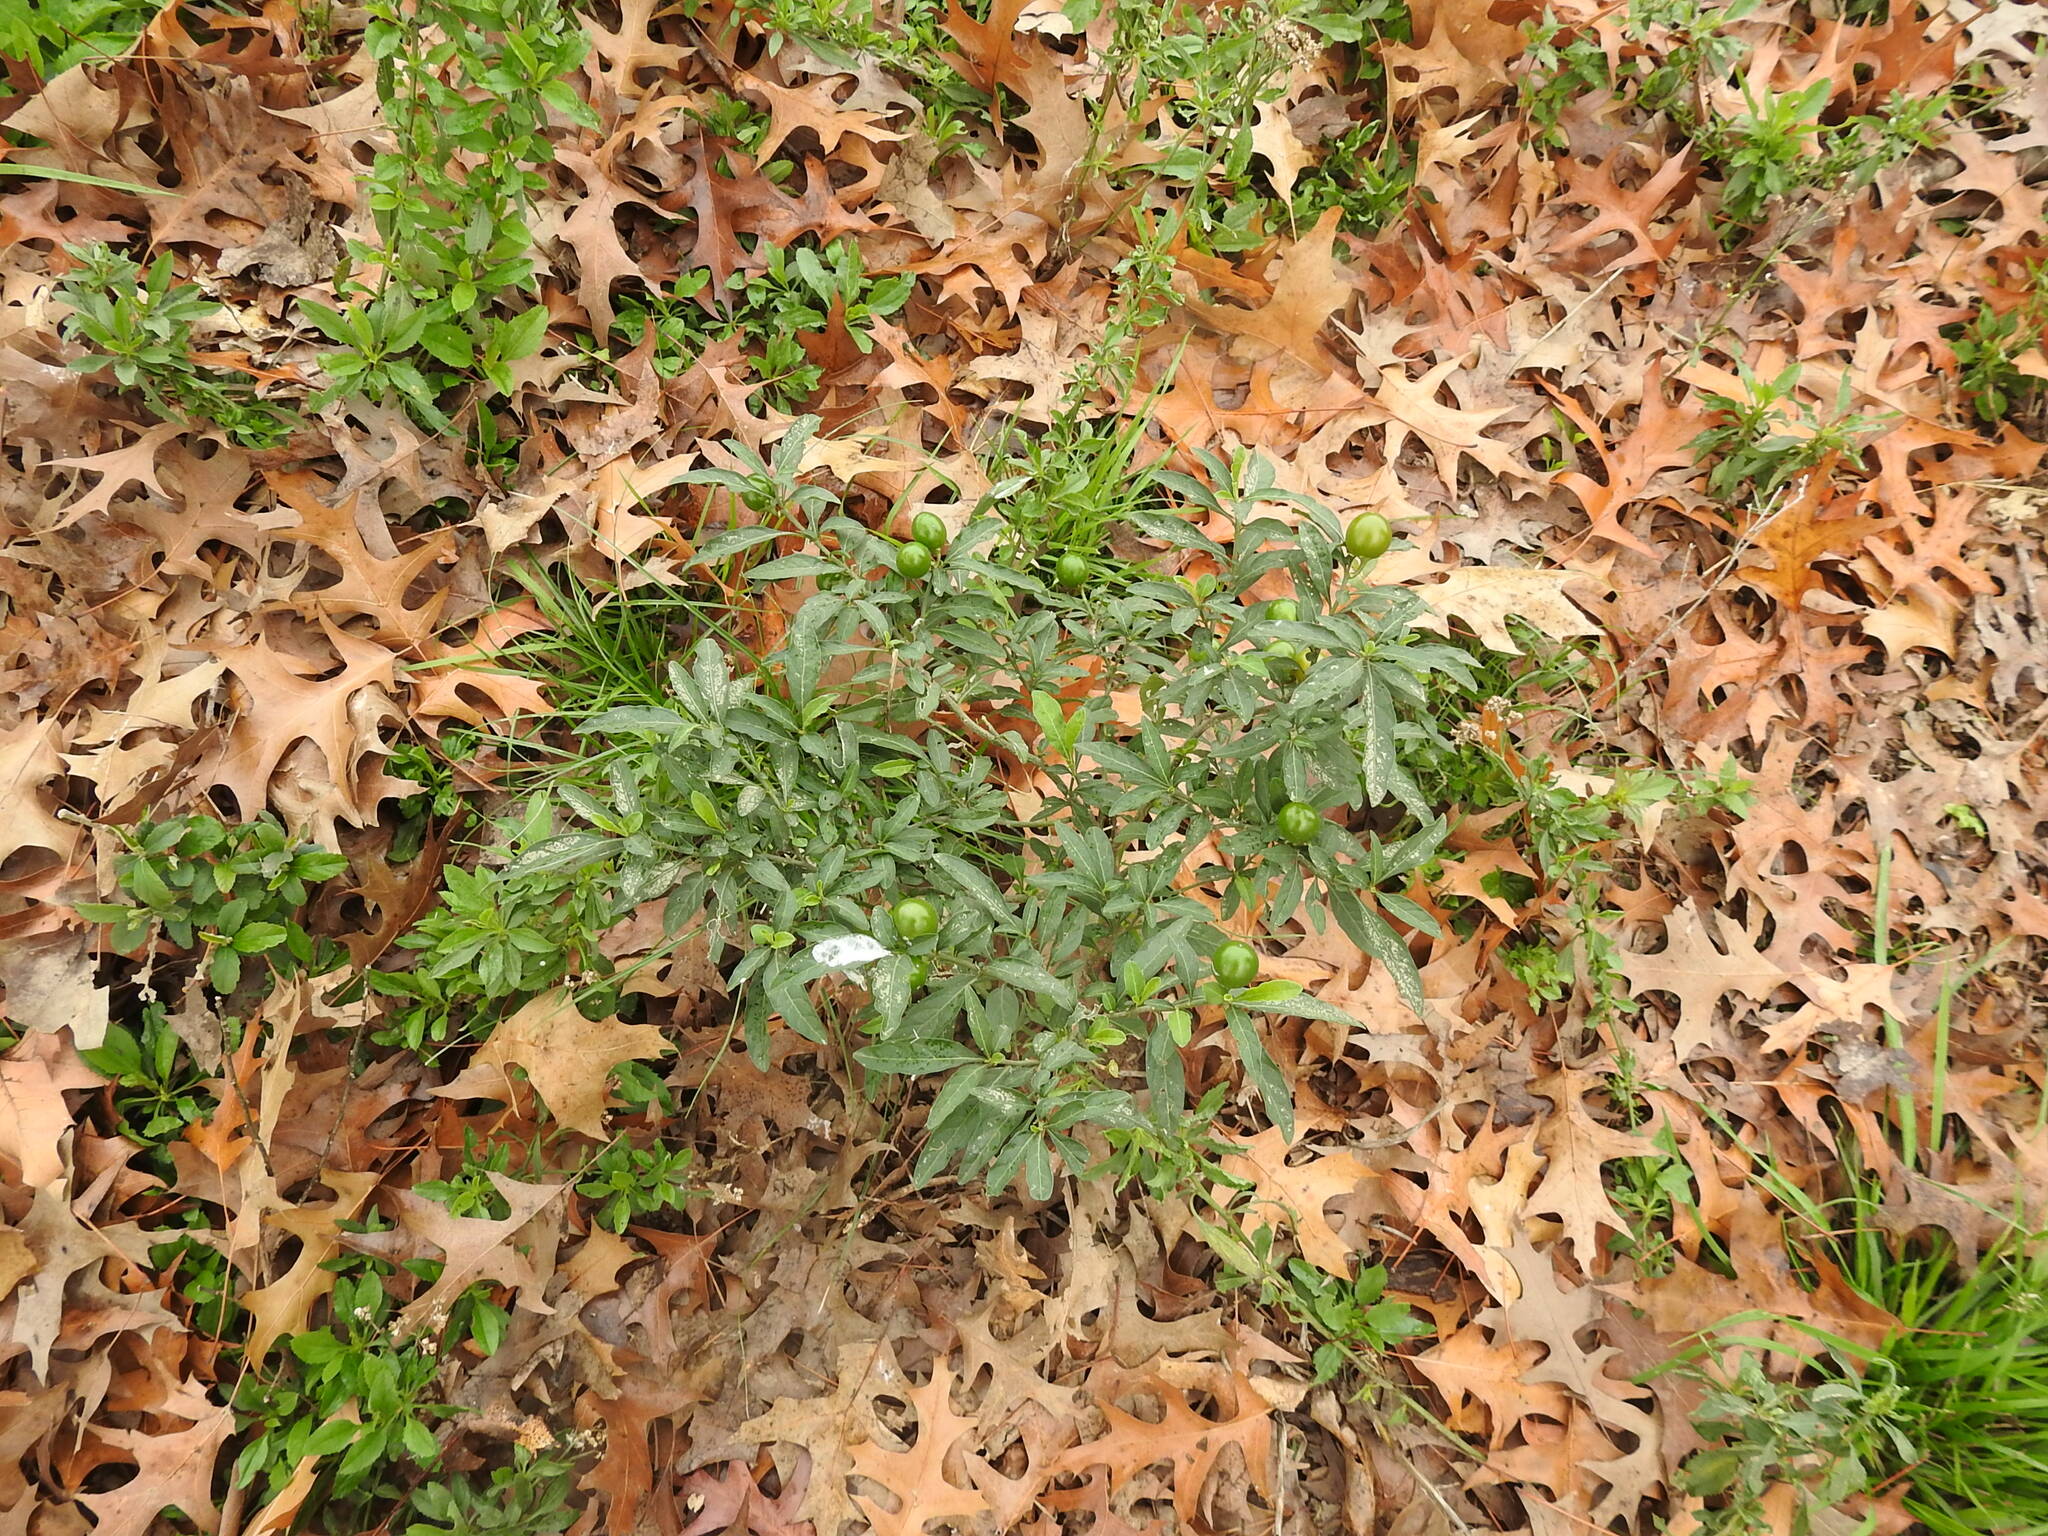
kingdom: Plantae
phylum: Tracheophyta
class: Magnoliopsida
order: Solanales
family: Solanaceae
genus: Solanum
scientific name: Solanum pseudocapsicum
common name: Jerusalem cherry
